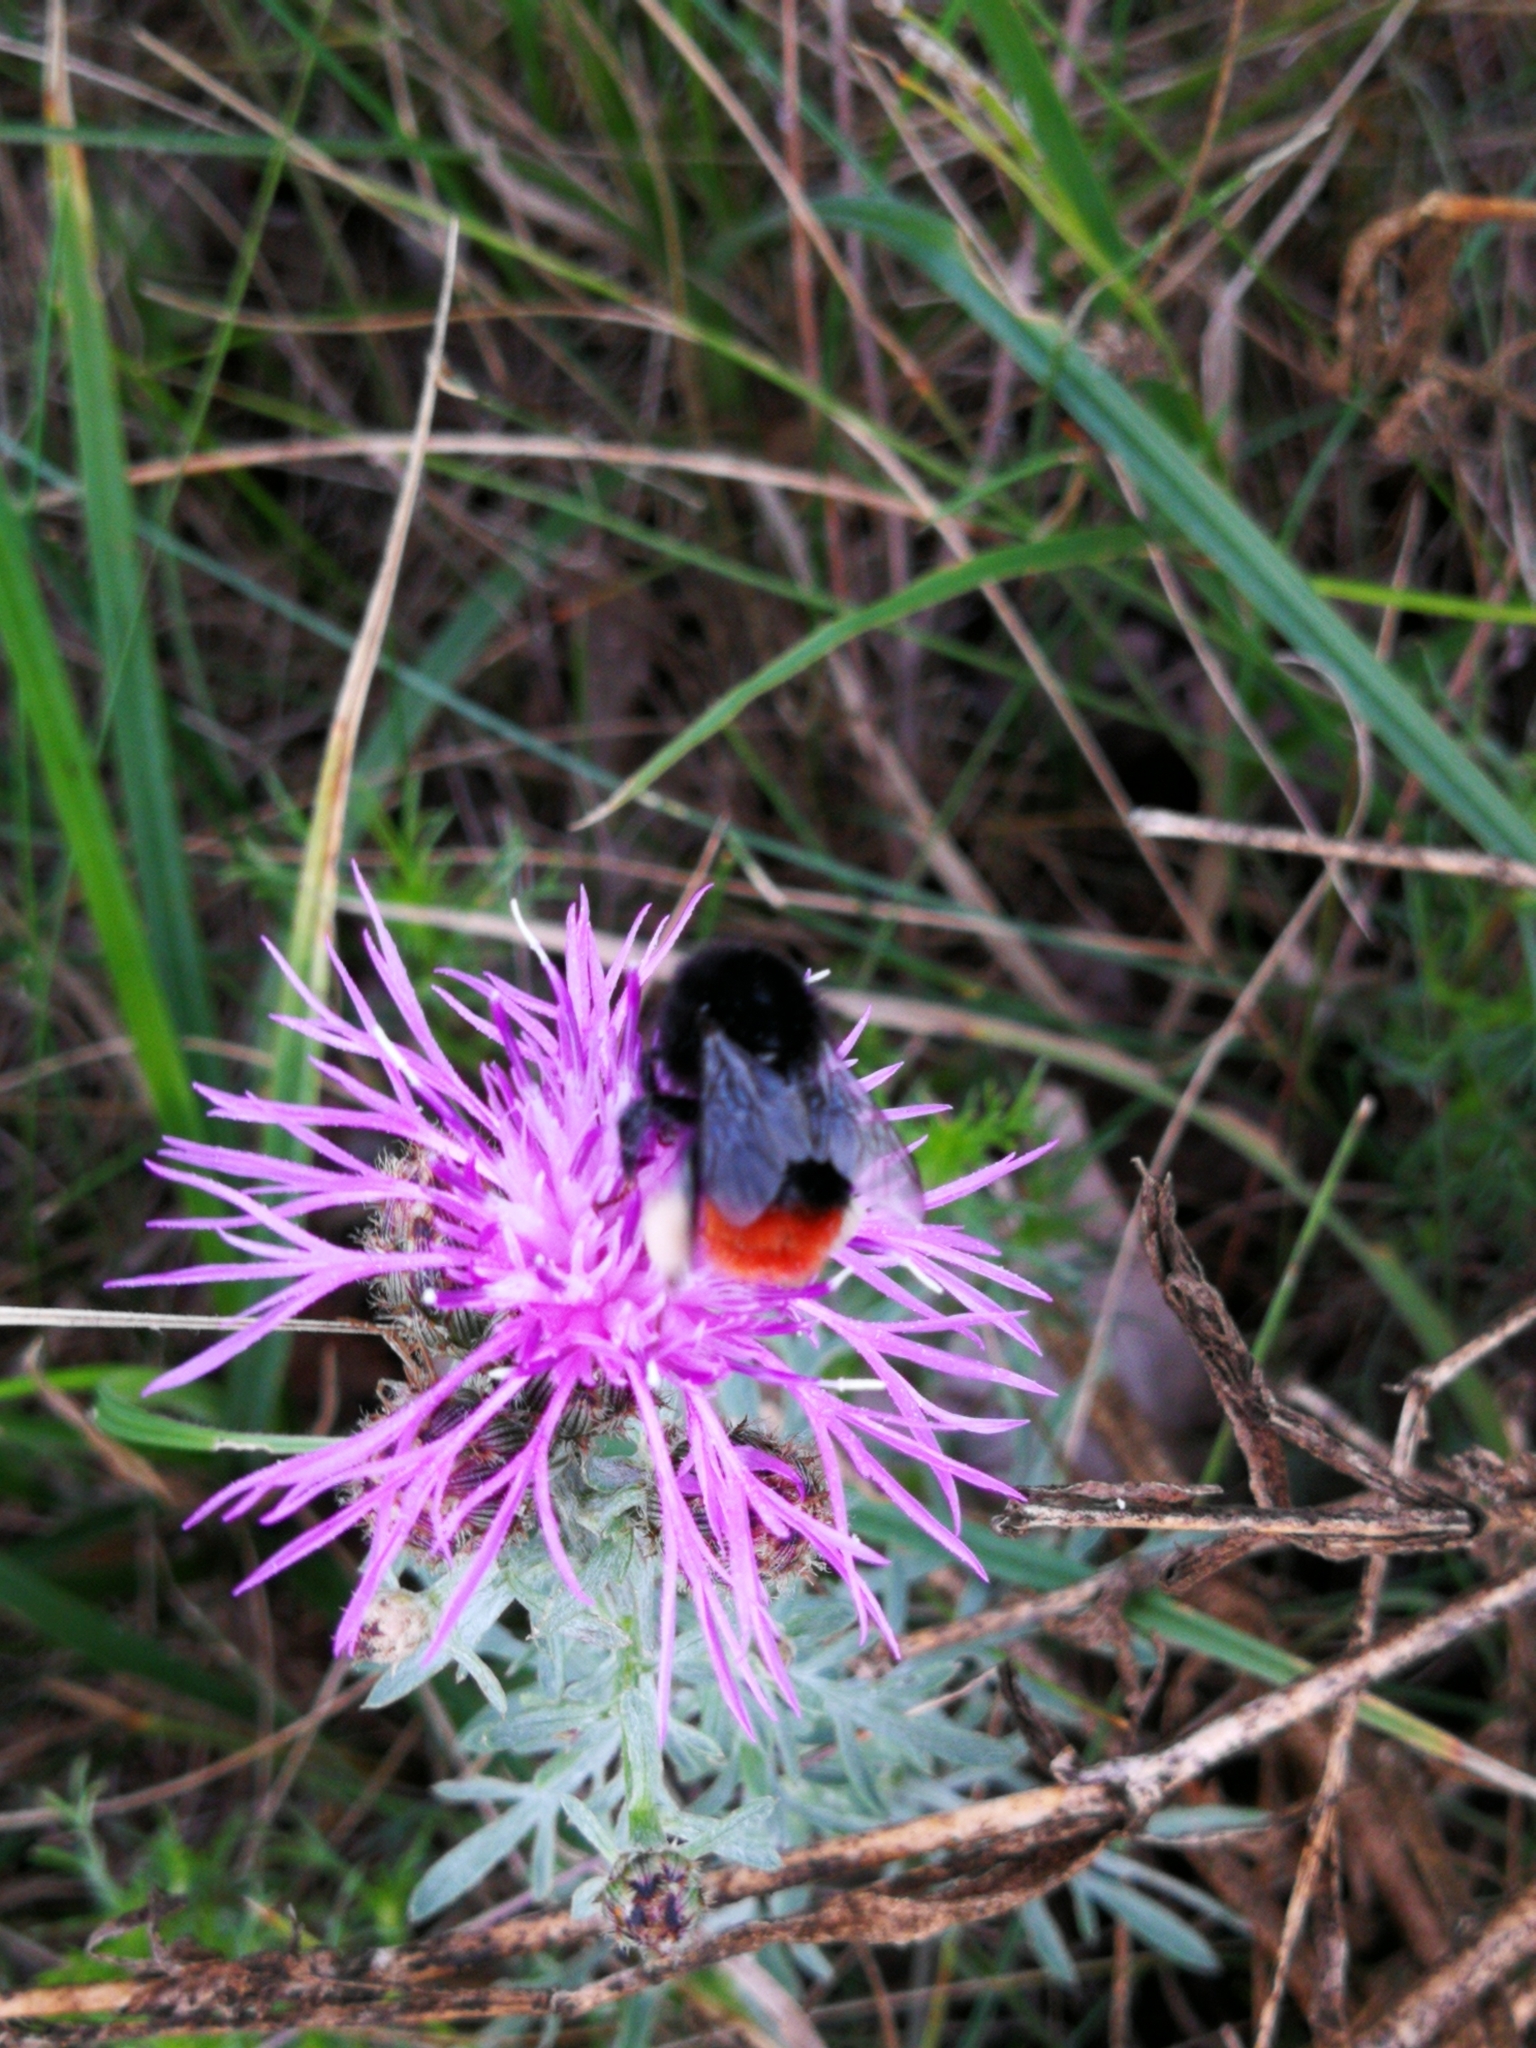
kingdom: Animalia
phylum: Arthropoda
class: Insecta
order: Hymenoptera
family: Apidae
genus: Bombus
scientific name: Bombus lapidarius
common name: Large red-tailed humble-bee
